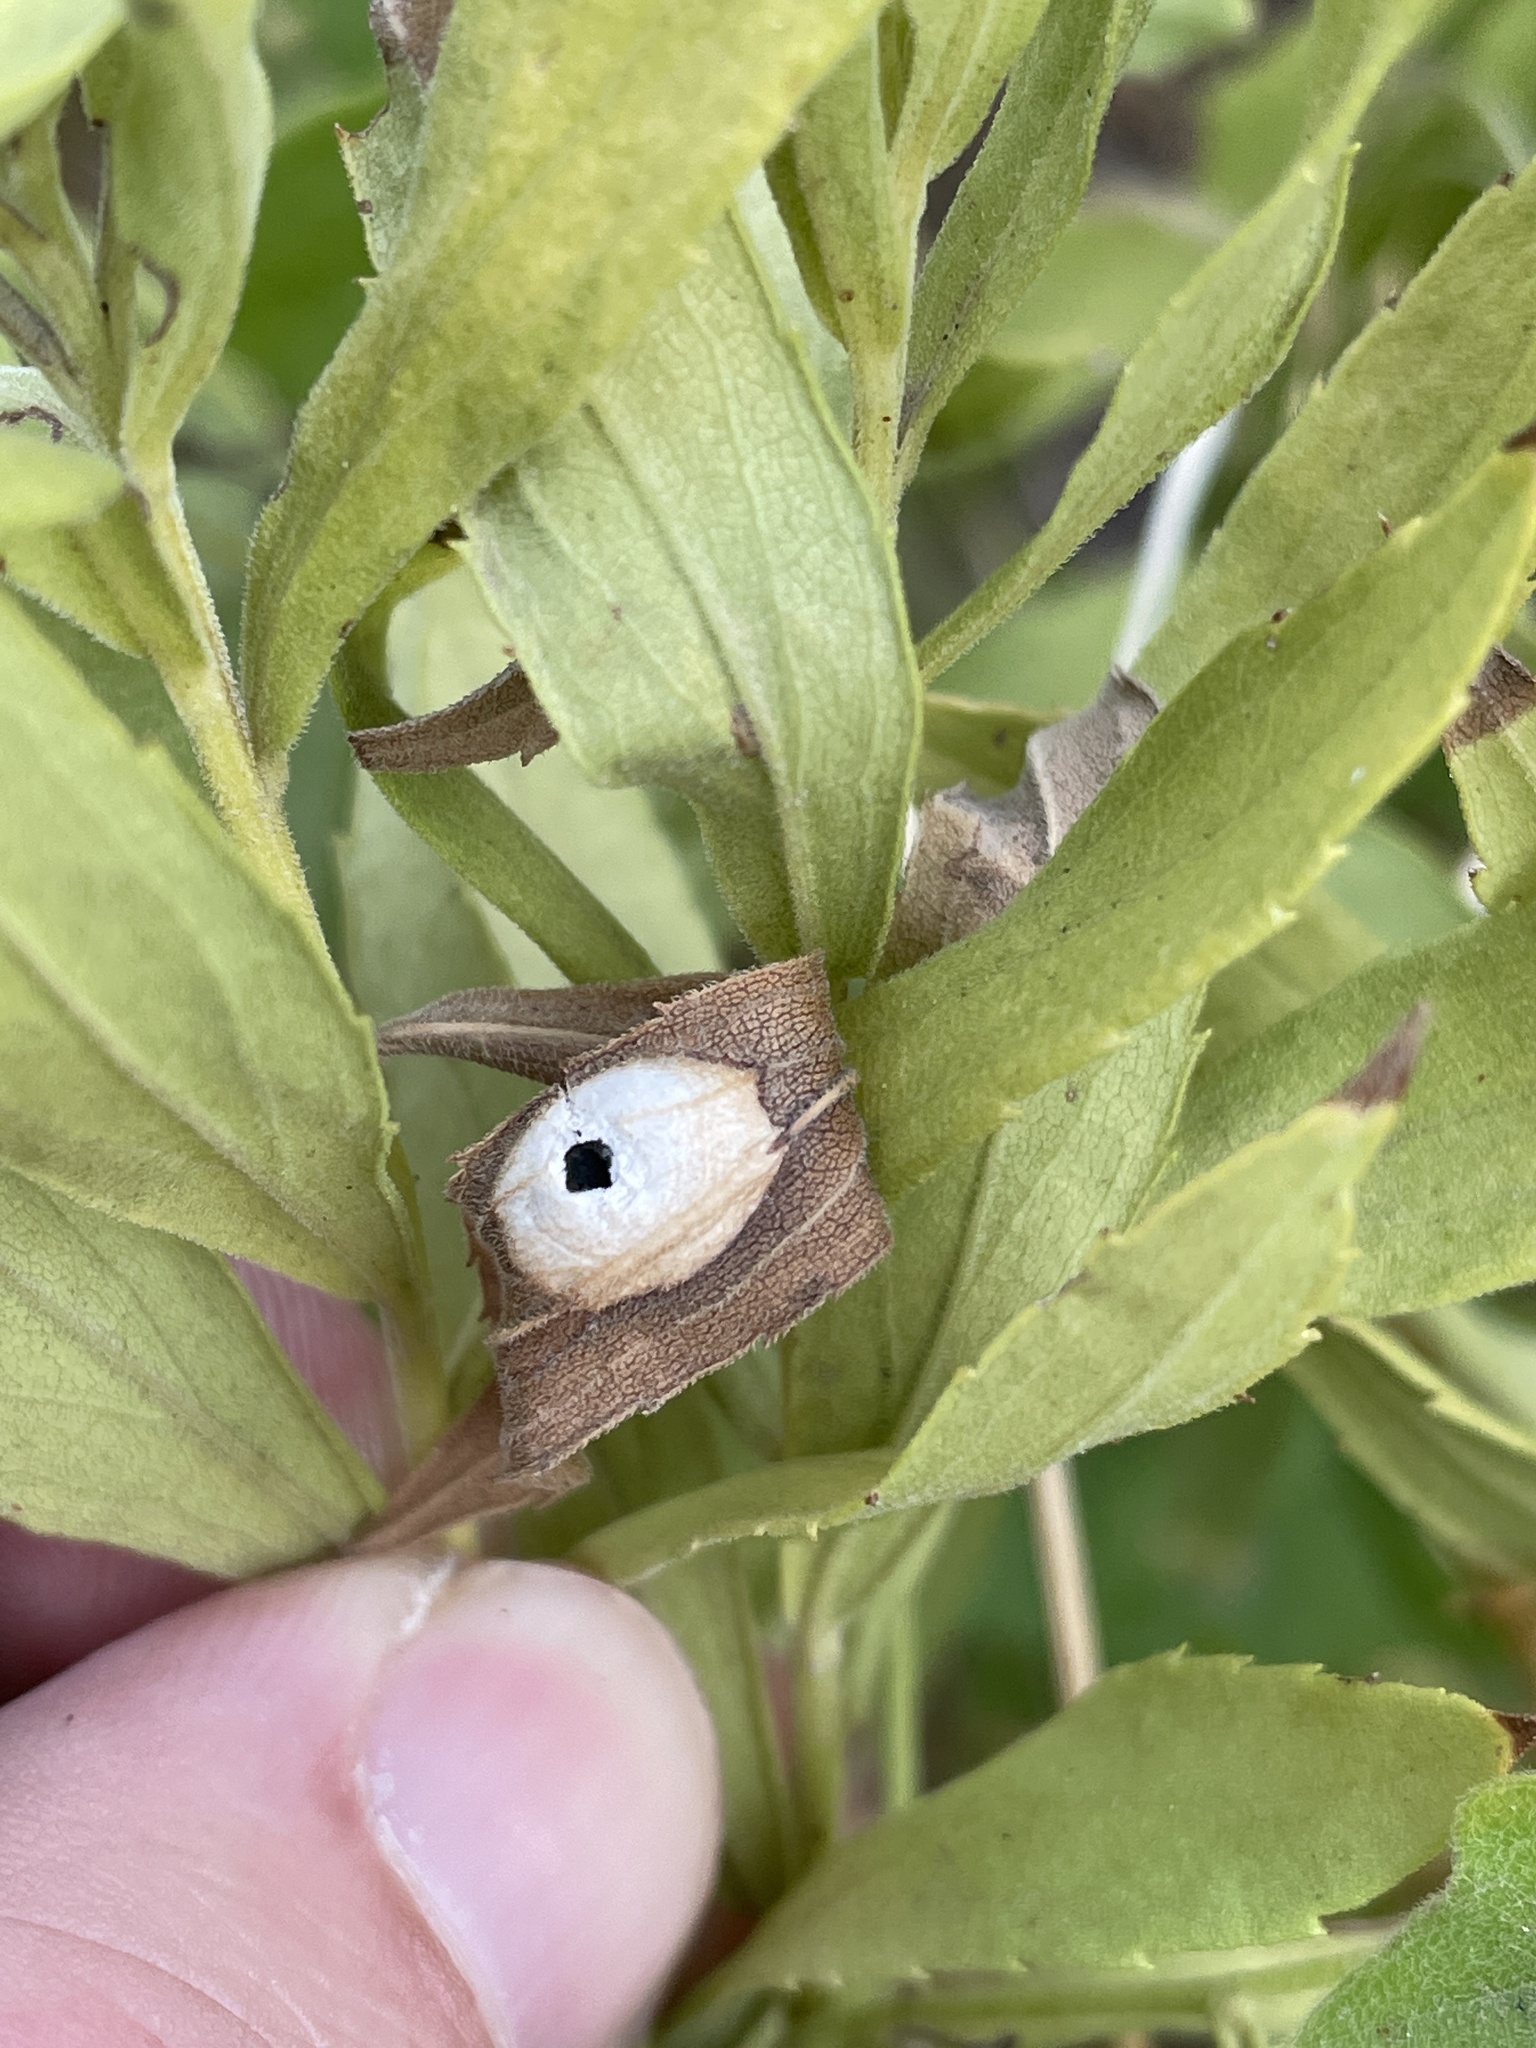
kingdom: Animalia
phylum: Arthropoda
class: Insecta
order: Diptera
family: Cecidomyiidae
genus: Asteromyia
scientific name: Asteromyia carbonifera
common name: Carbonifera goldenrod gall midge
